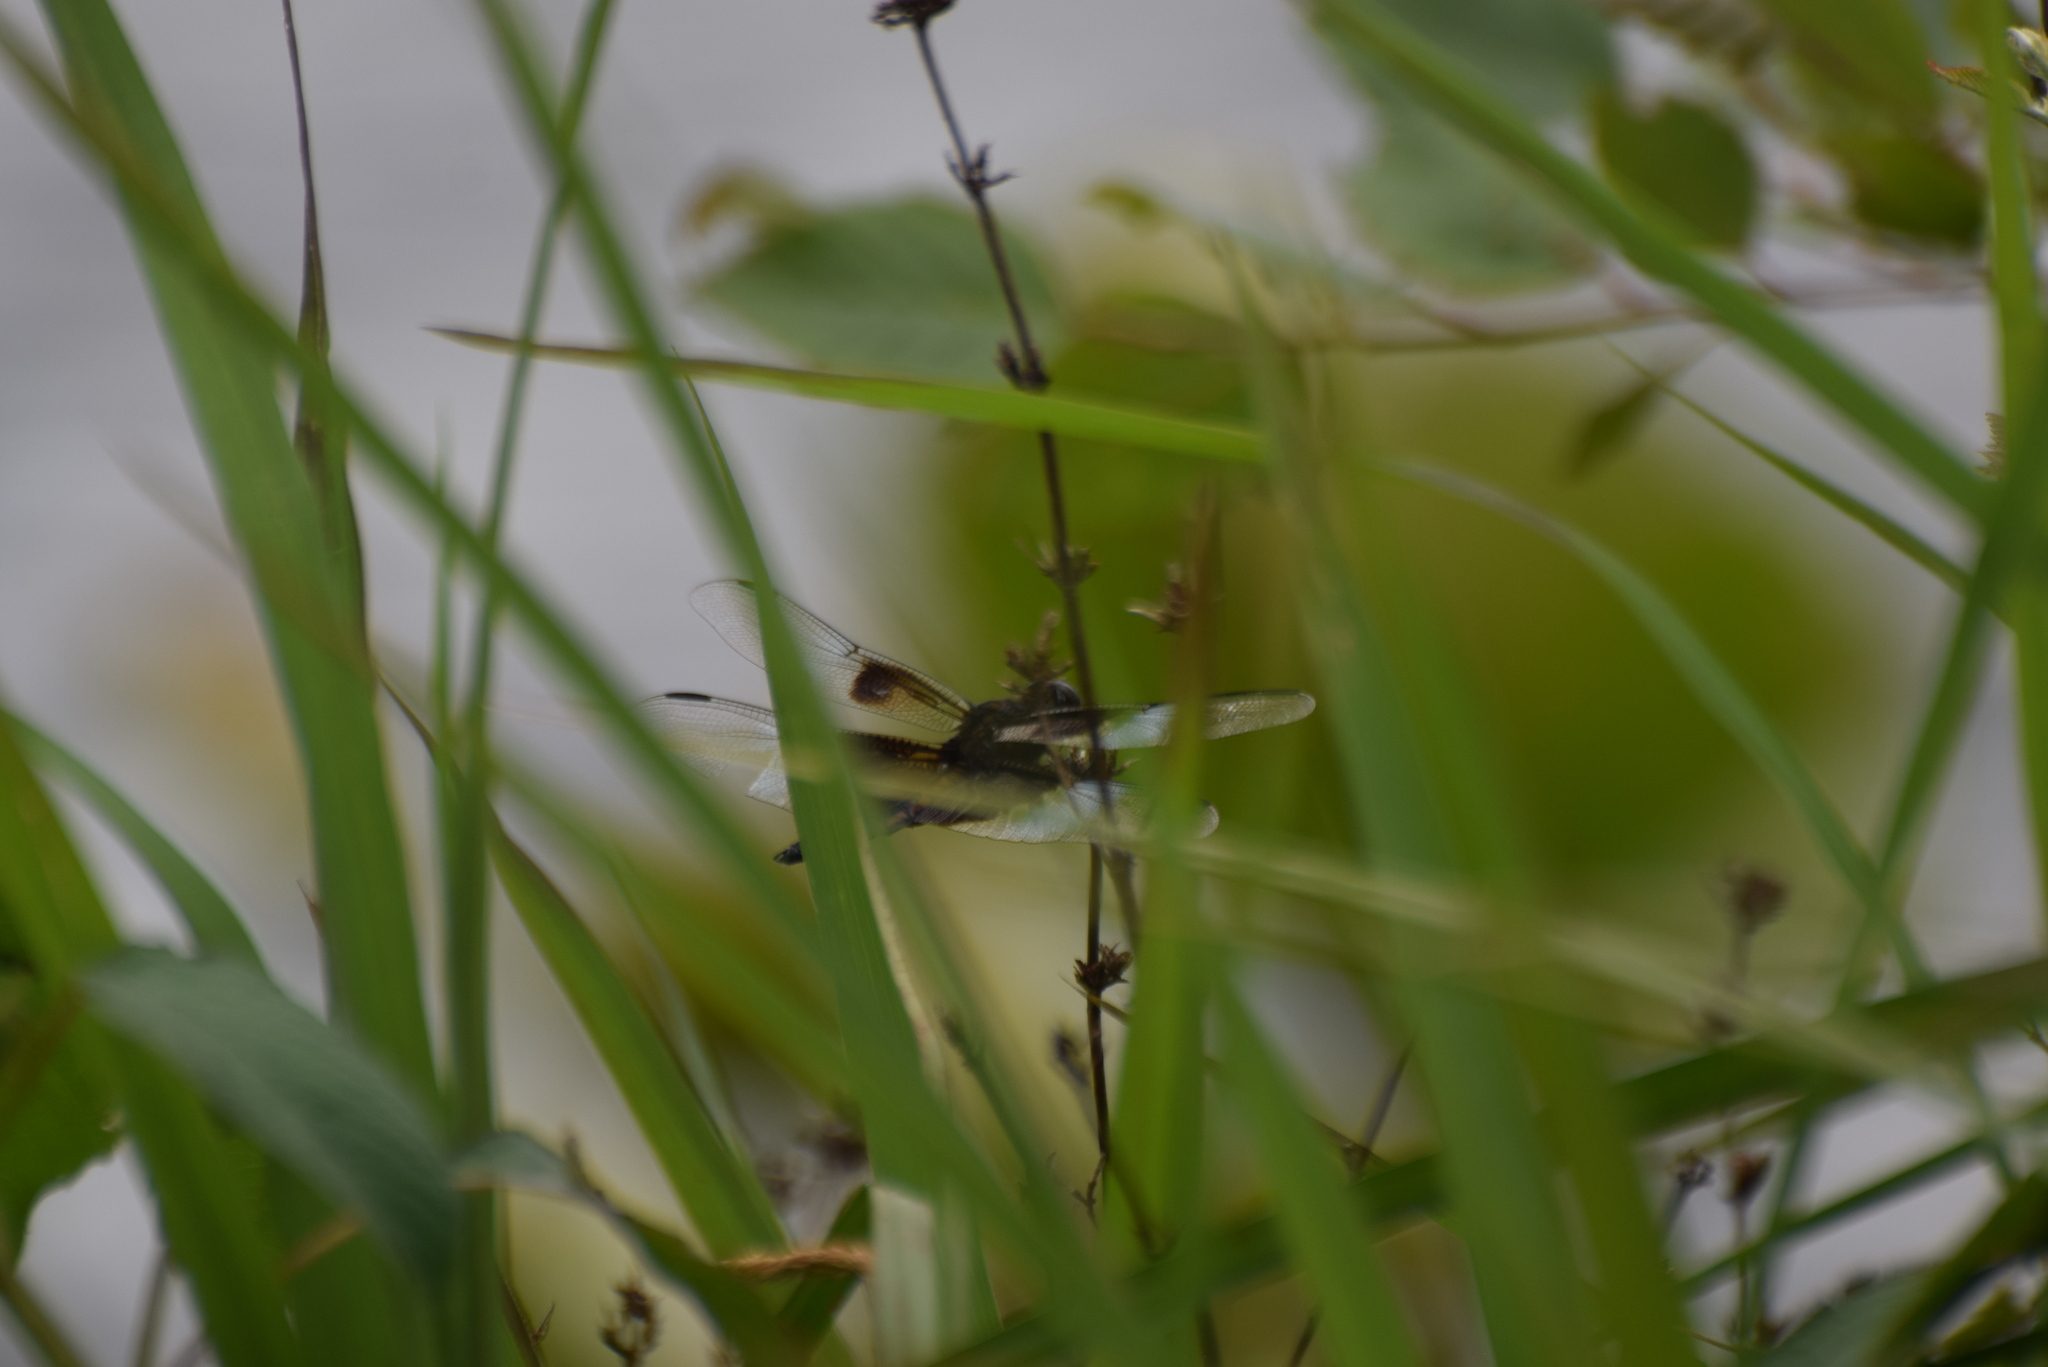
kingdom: Animalia
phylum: Arthropoda
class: Insecta
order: Odonata
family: Libellulidae
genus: Libellula
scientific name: Libellula luctuosa
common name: Widow skimmer
